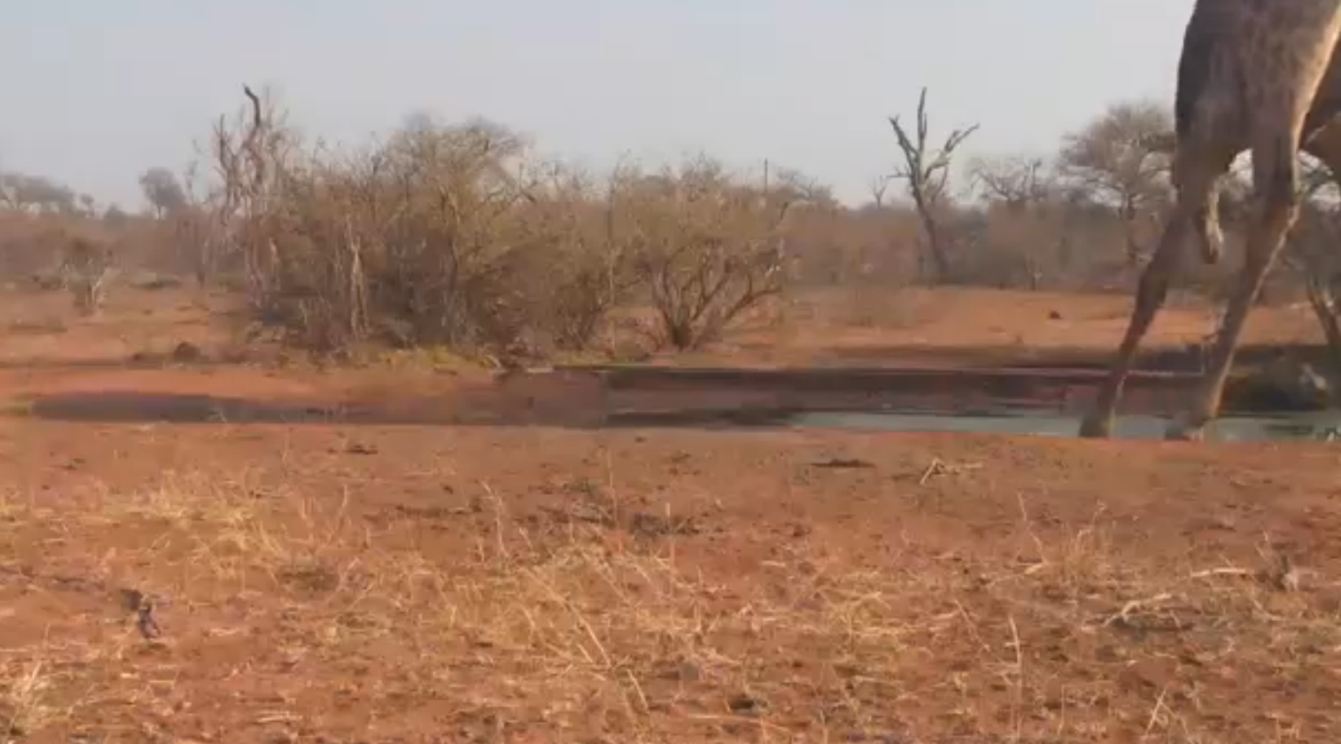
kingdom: Animalia
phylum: Chordata
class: Mammalia
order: Artiodactyla
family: Giraffidae
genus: Giraffa
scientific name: Giraffa giraffa
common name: Southern giraffe
